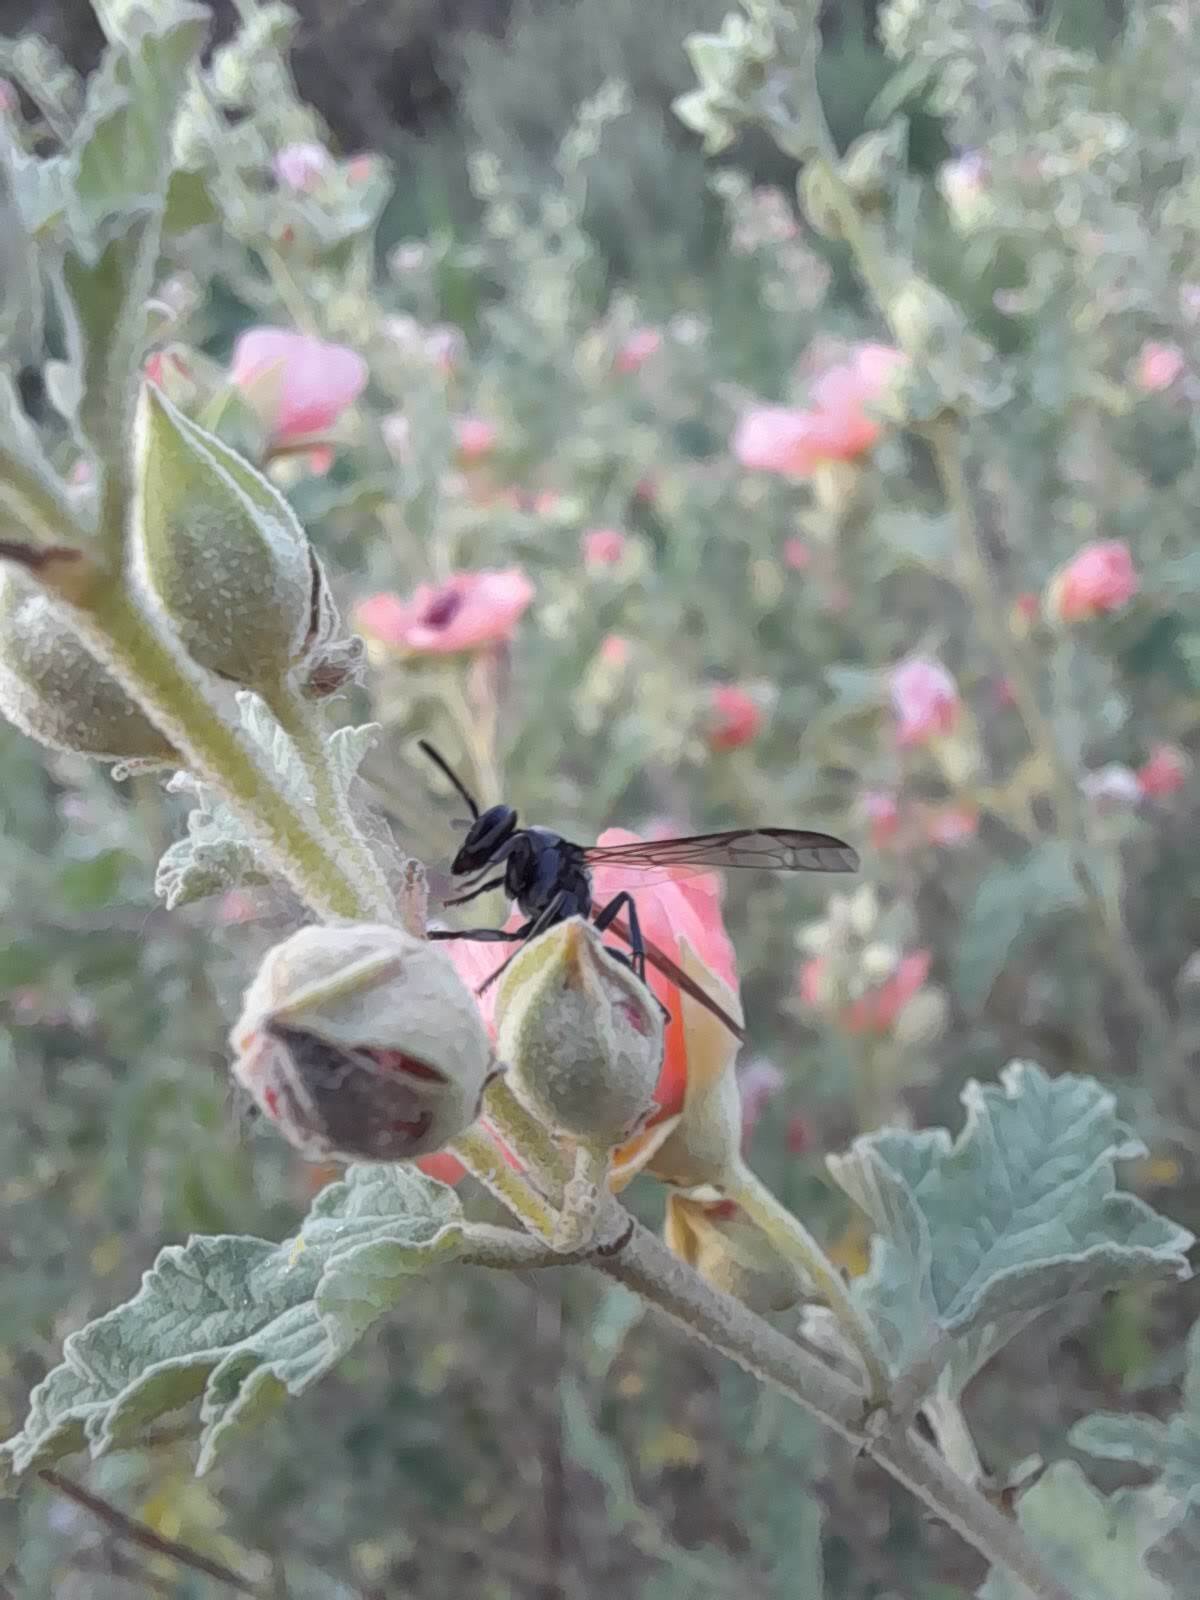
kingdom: Animalia
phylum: Arthropoda
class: Insecta
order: Hymenoptera
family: Eumenidae
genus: Polybia
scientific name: Polybia scutellaris
